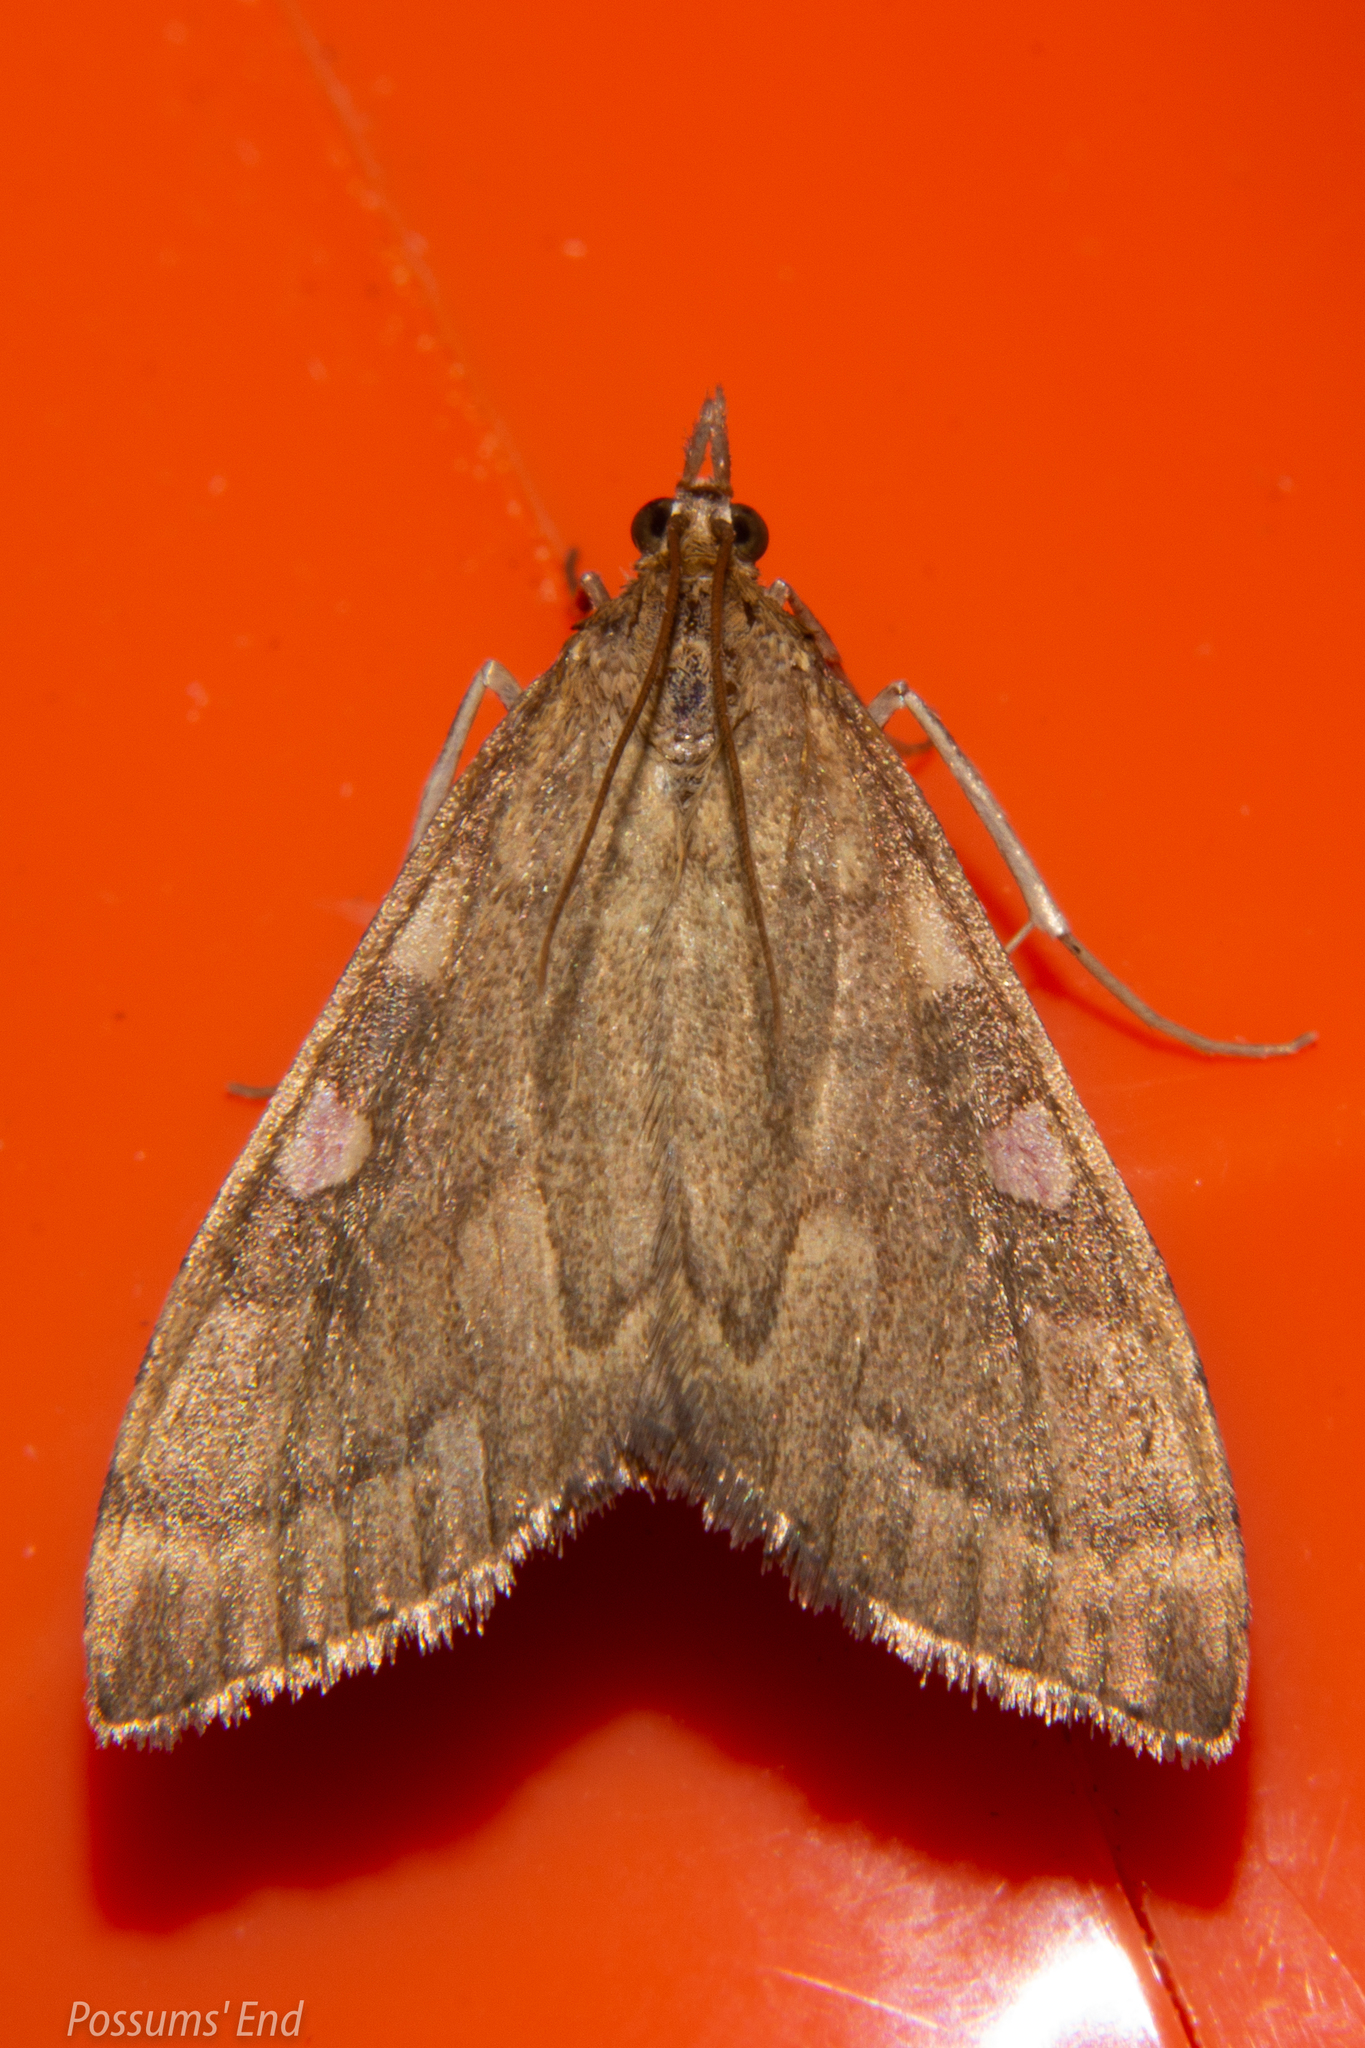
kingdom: Animalia
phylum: Arthropoda
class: Insecta
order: Lepidoptera
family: Crambidae
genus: Udea
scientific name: Udea Mnesictena marmarina
